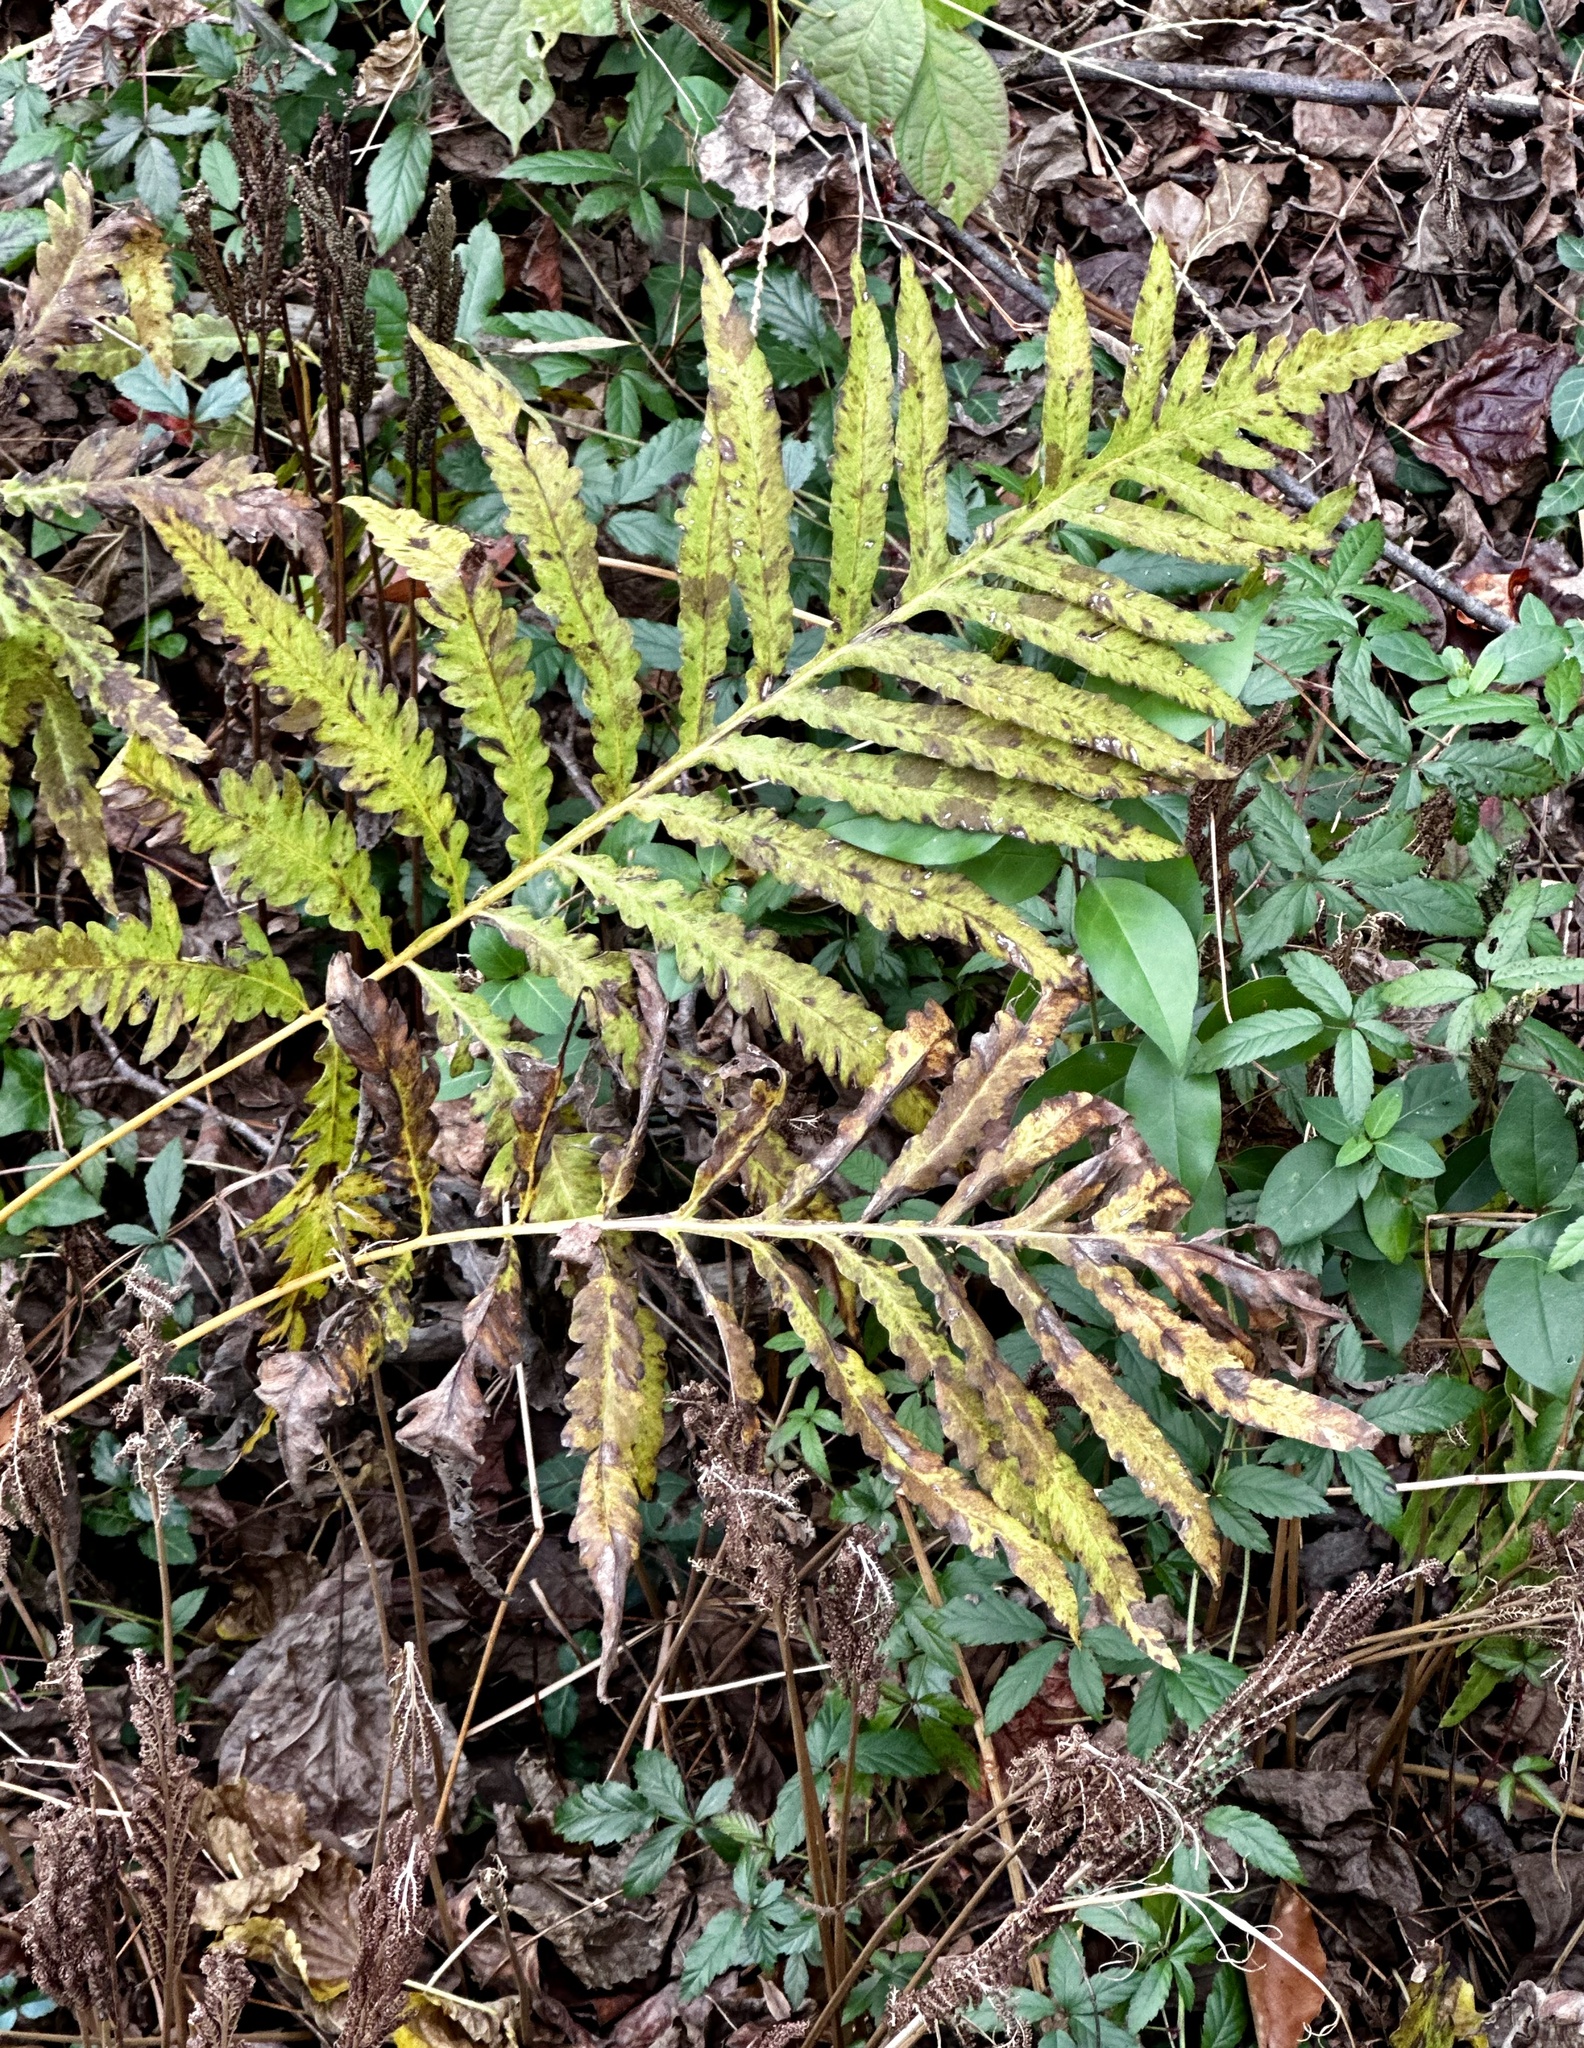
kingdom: Plantae
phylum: Tracheophyta
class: Polypodiopsida
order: Polypodiales
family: Onocleaceae
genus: Onoclea
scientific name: Onoclea sensibilis
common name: Sensitive fern
